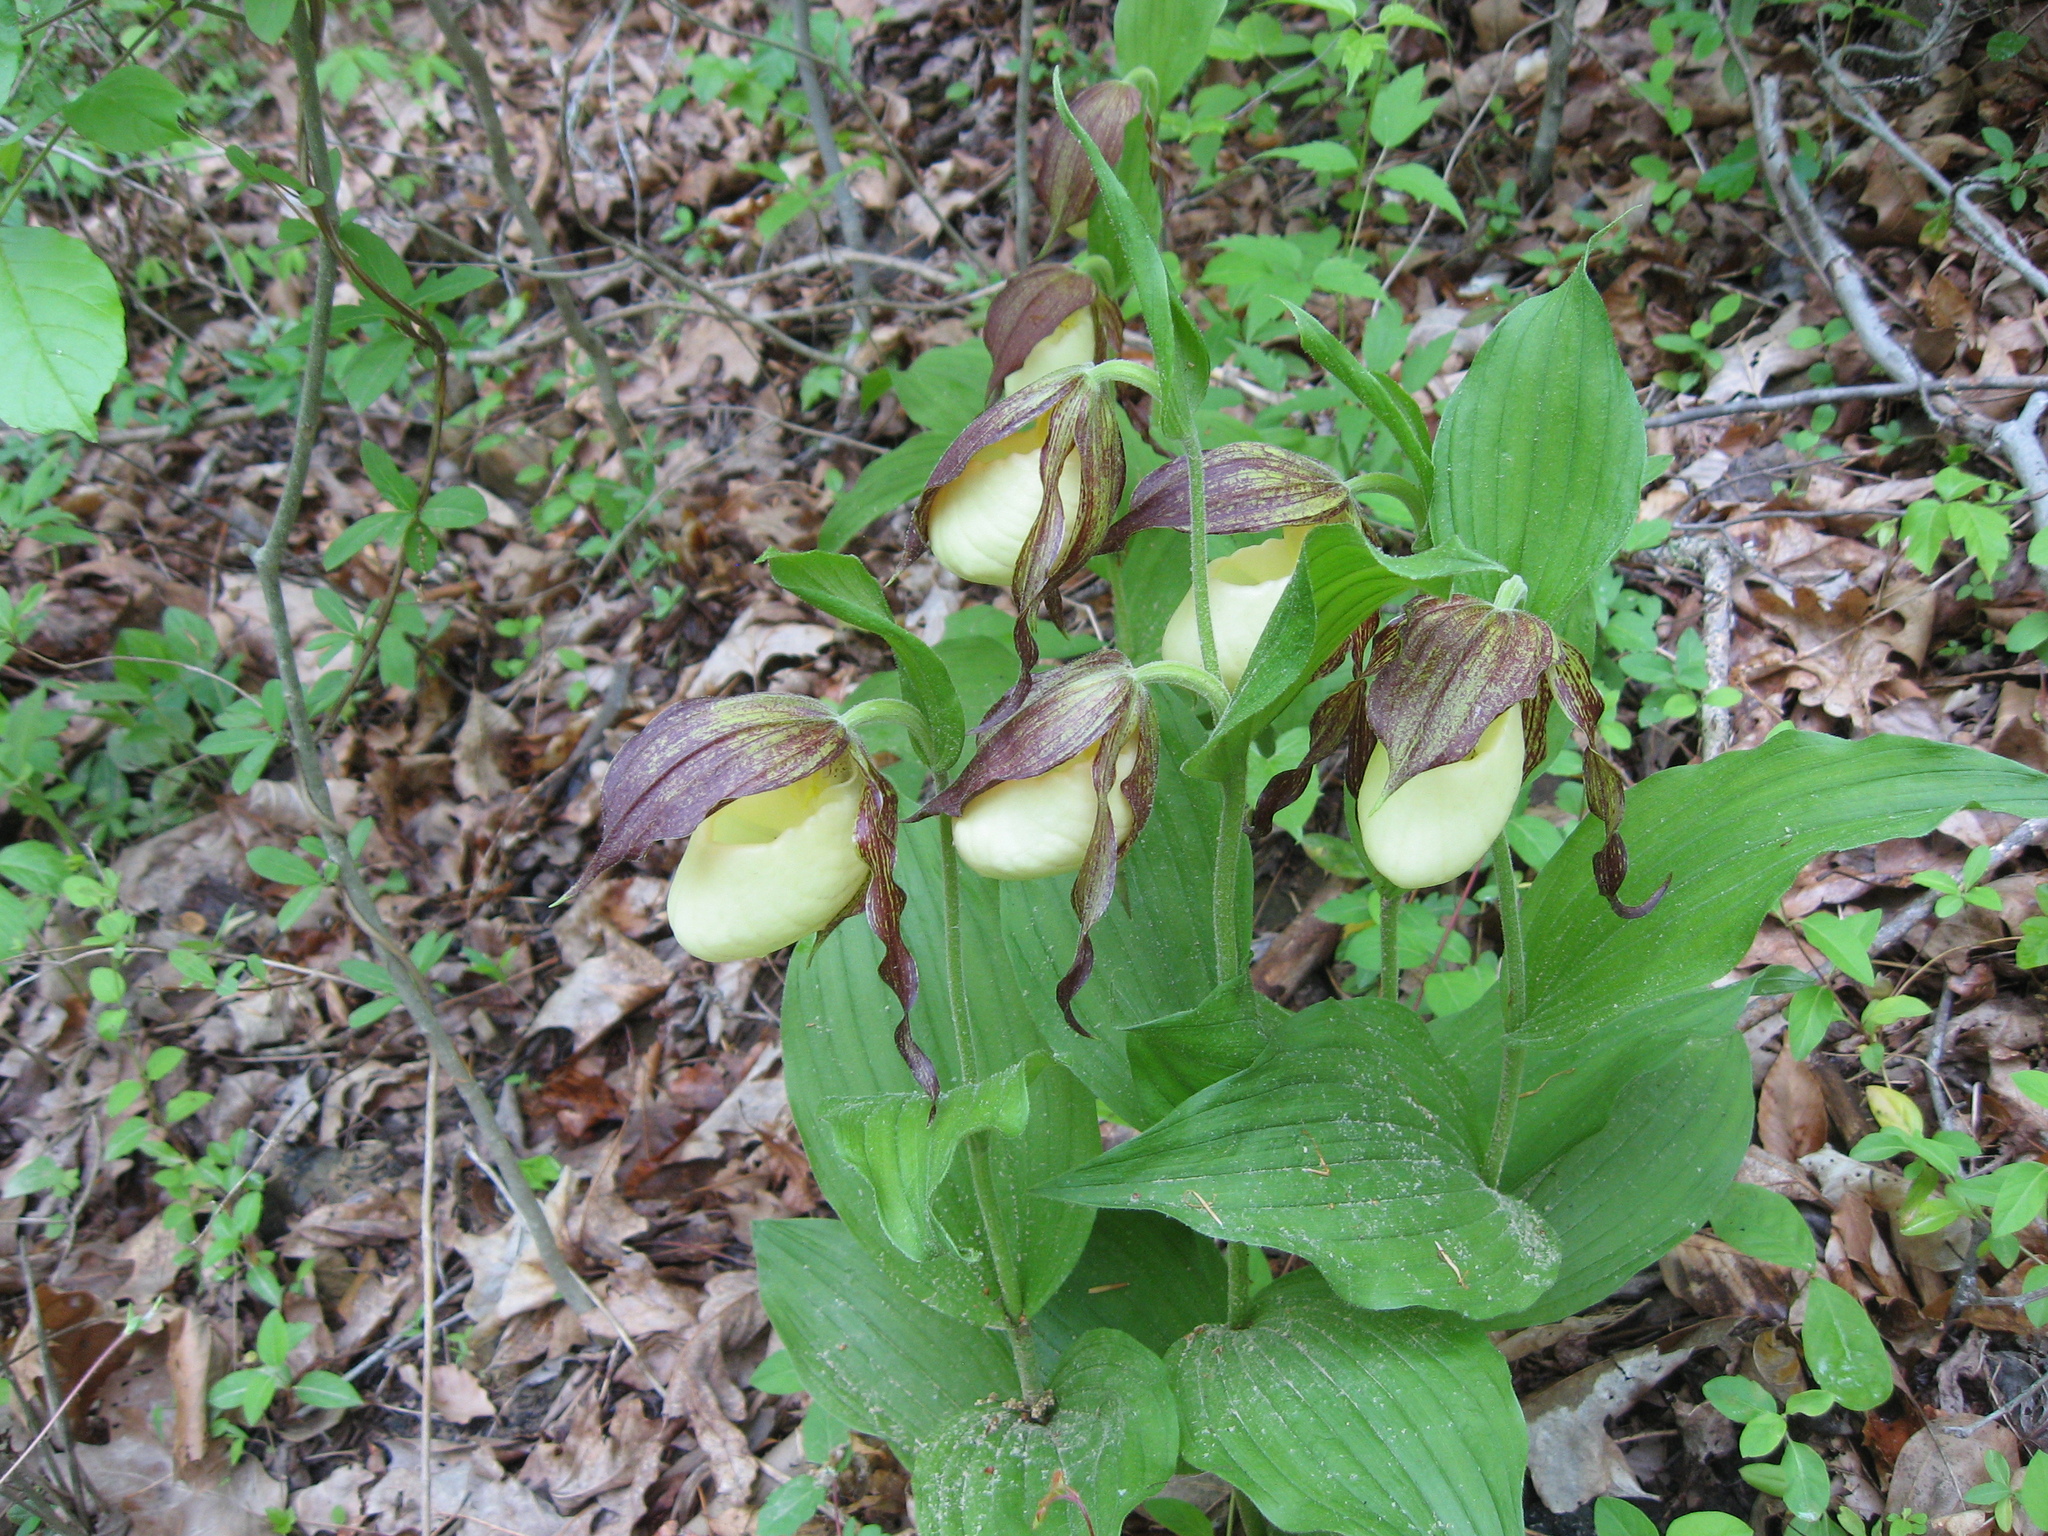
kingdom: Plantae
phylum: Tracheophyta
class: Liliopsida
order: Asparagales
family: Orchidaceae
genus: Cypripedium
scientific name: Cypripedium kentuckiense
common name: Kentucky lady's slipper
